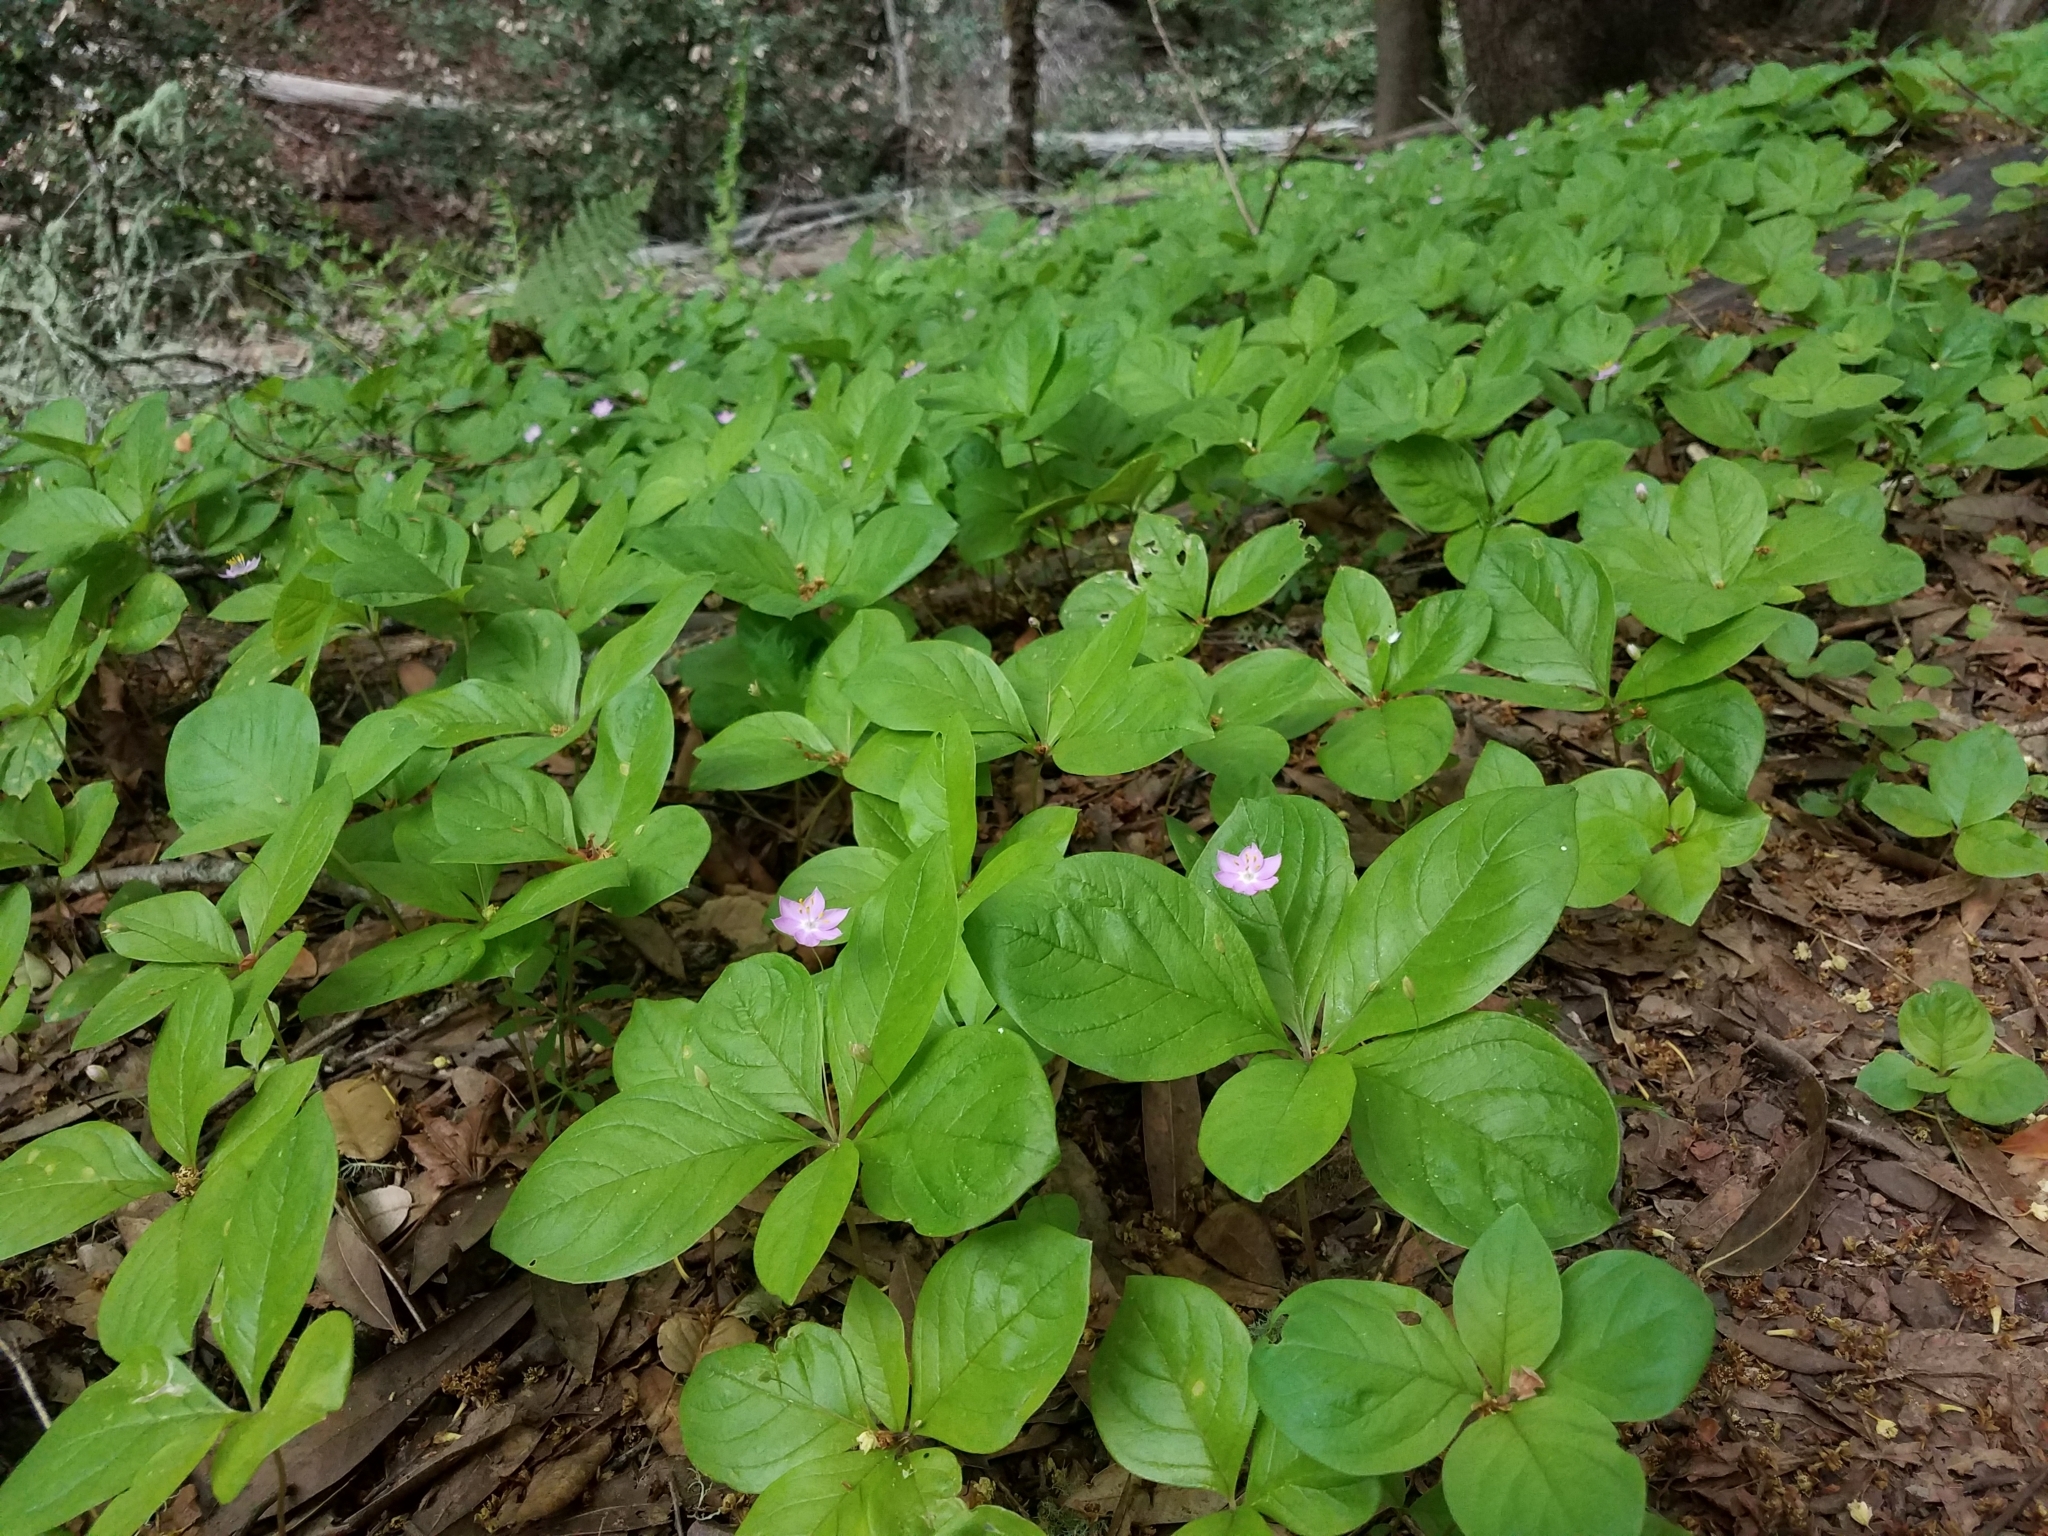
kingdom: Plantae
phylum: Tracheophyta
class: Magnoliopsida
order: Ericales
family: Primulaceae
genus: Lysimachia
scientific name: Lysimachia latifolia
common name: Pacific starflower
